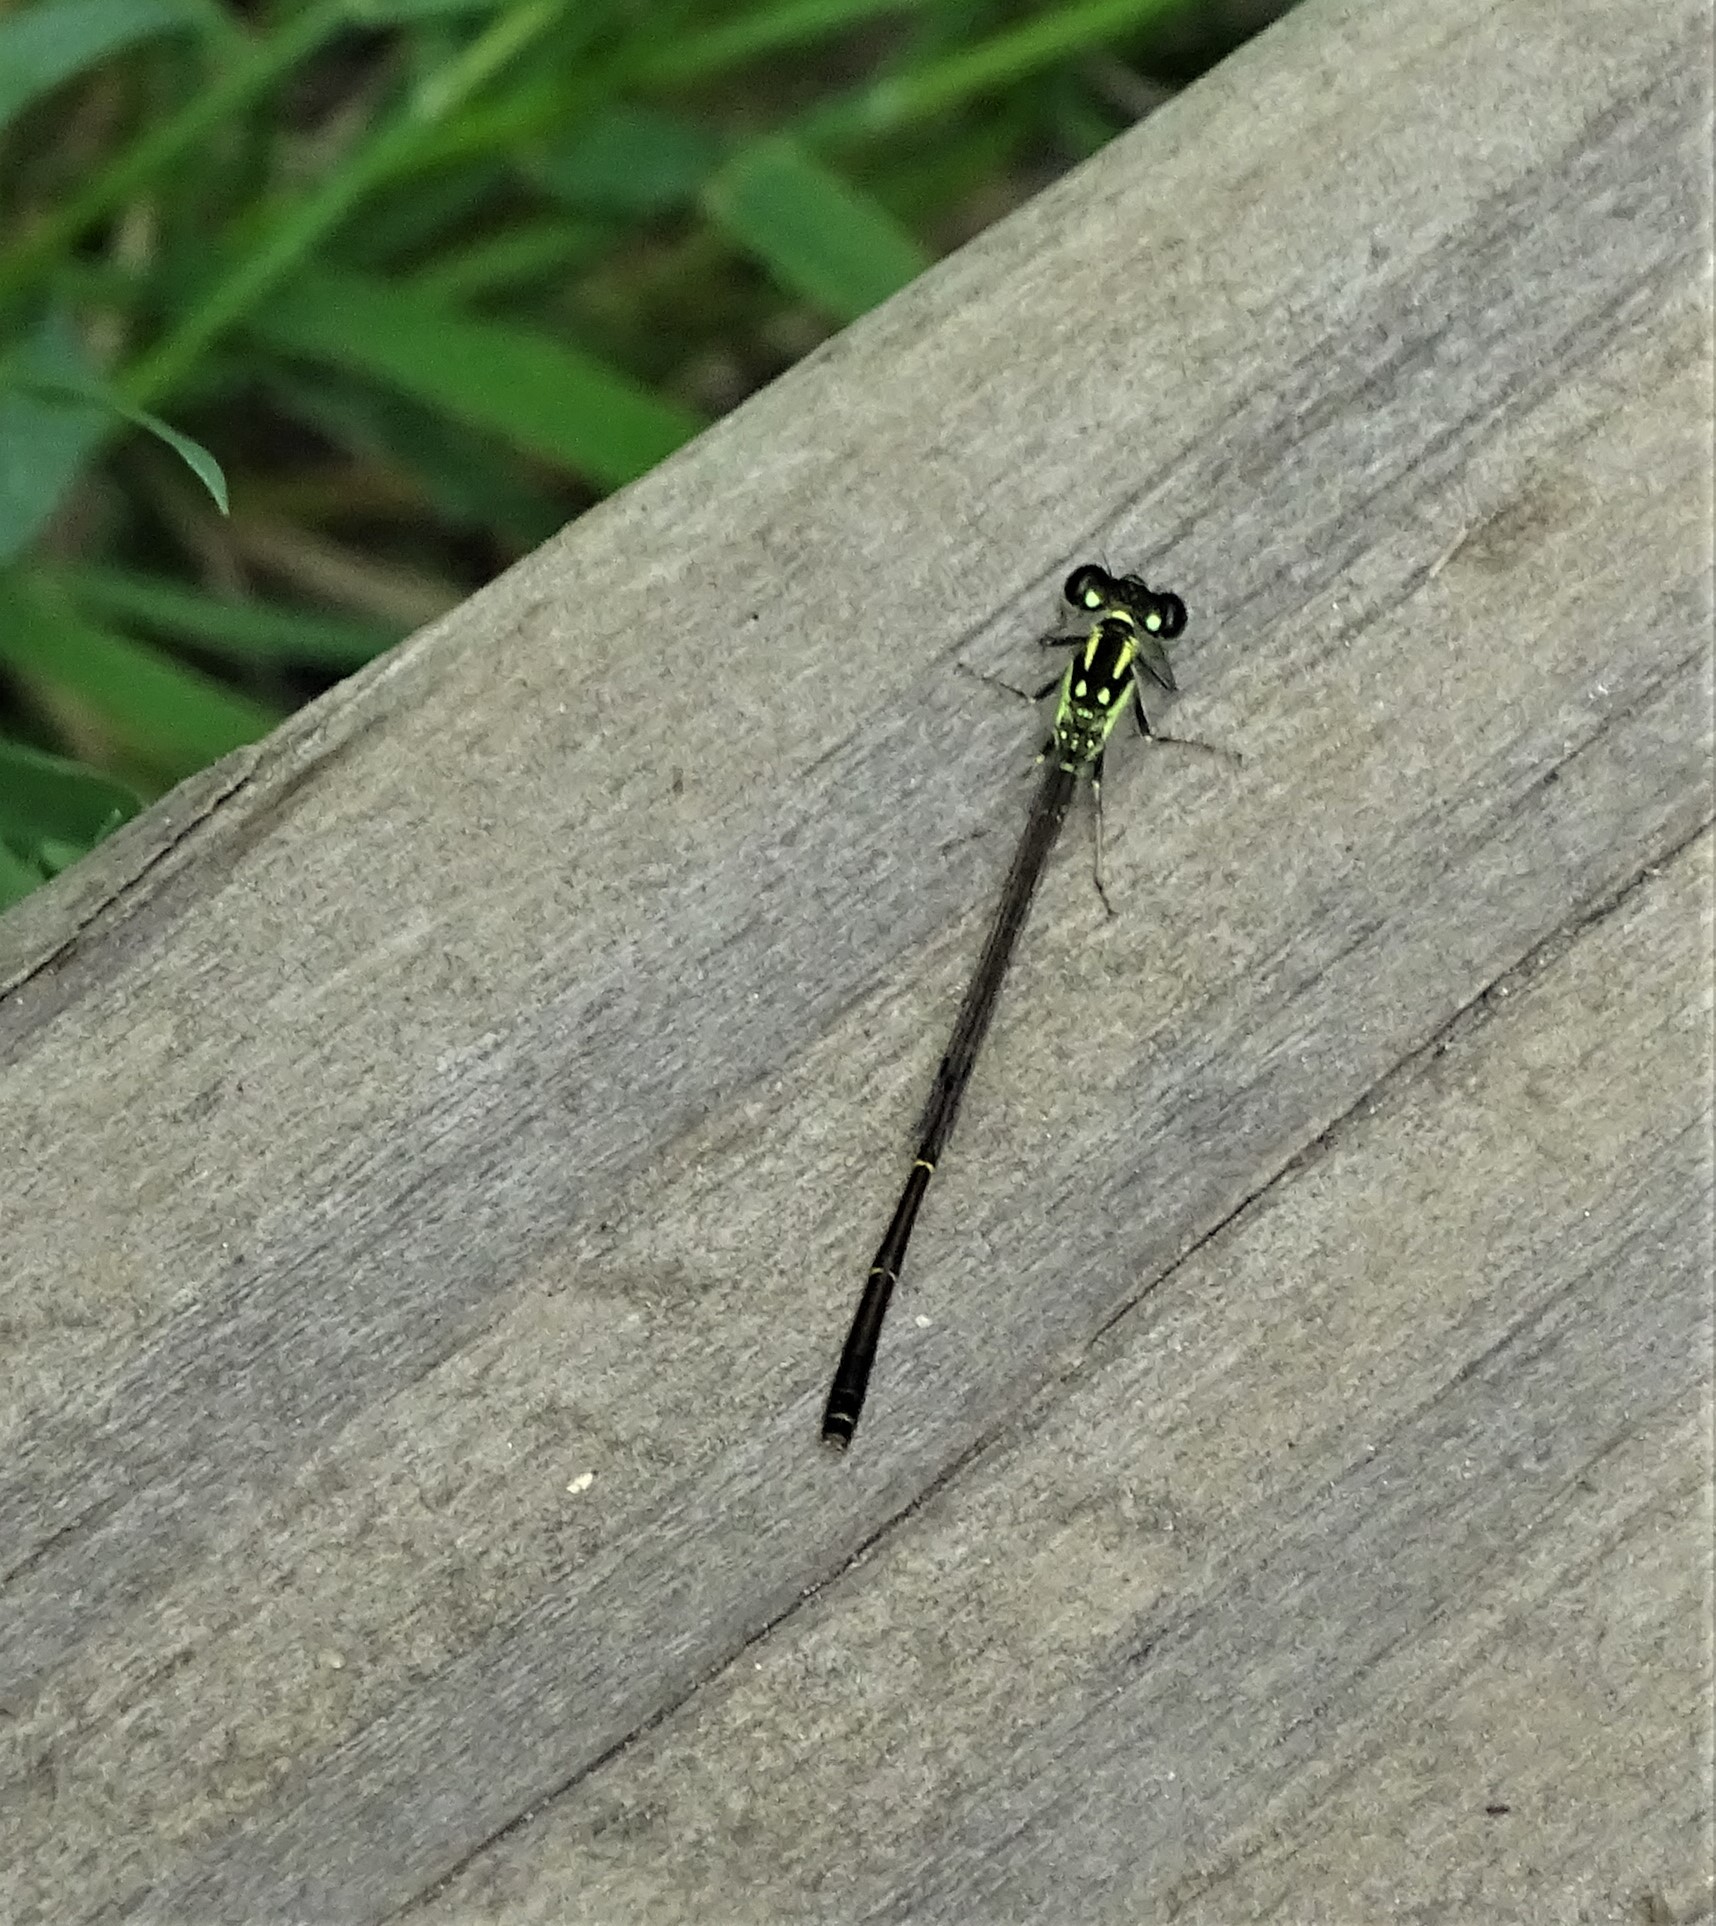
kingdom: Animalia
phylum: Arthropoda
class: Insecta
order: Odonata
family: Coenagrionidae
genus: Ischnura
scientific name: Ischnura posita
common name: Fragile forktail
